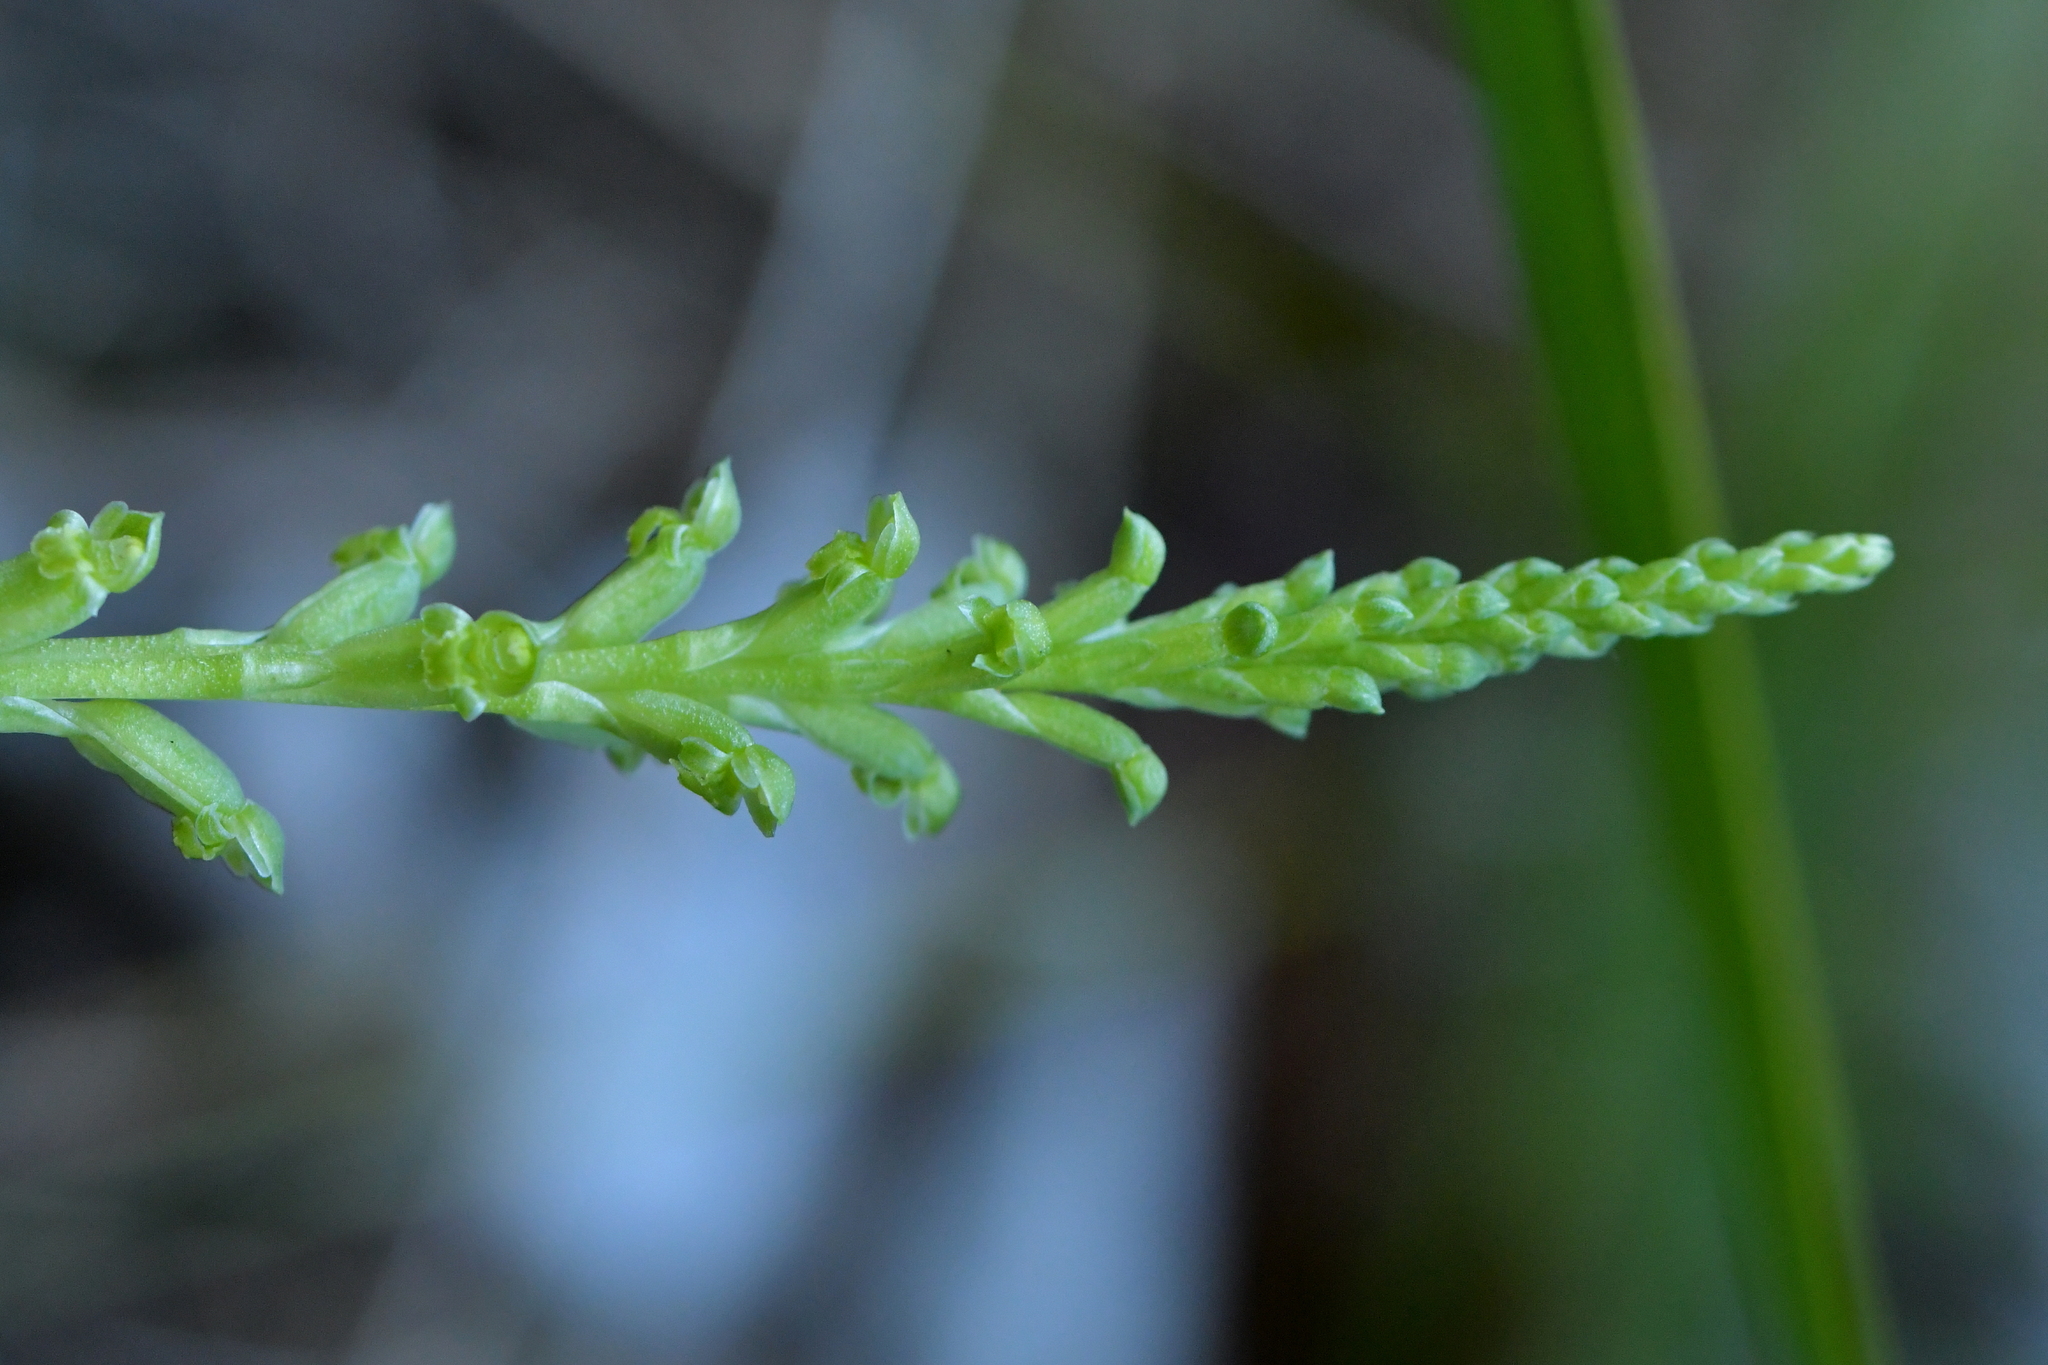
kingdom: Plantae
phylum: Tracheophyta
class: Liliopsida
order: Asparagales
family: Orchidaceae
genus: Microtis
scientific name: Microtis unifolia
